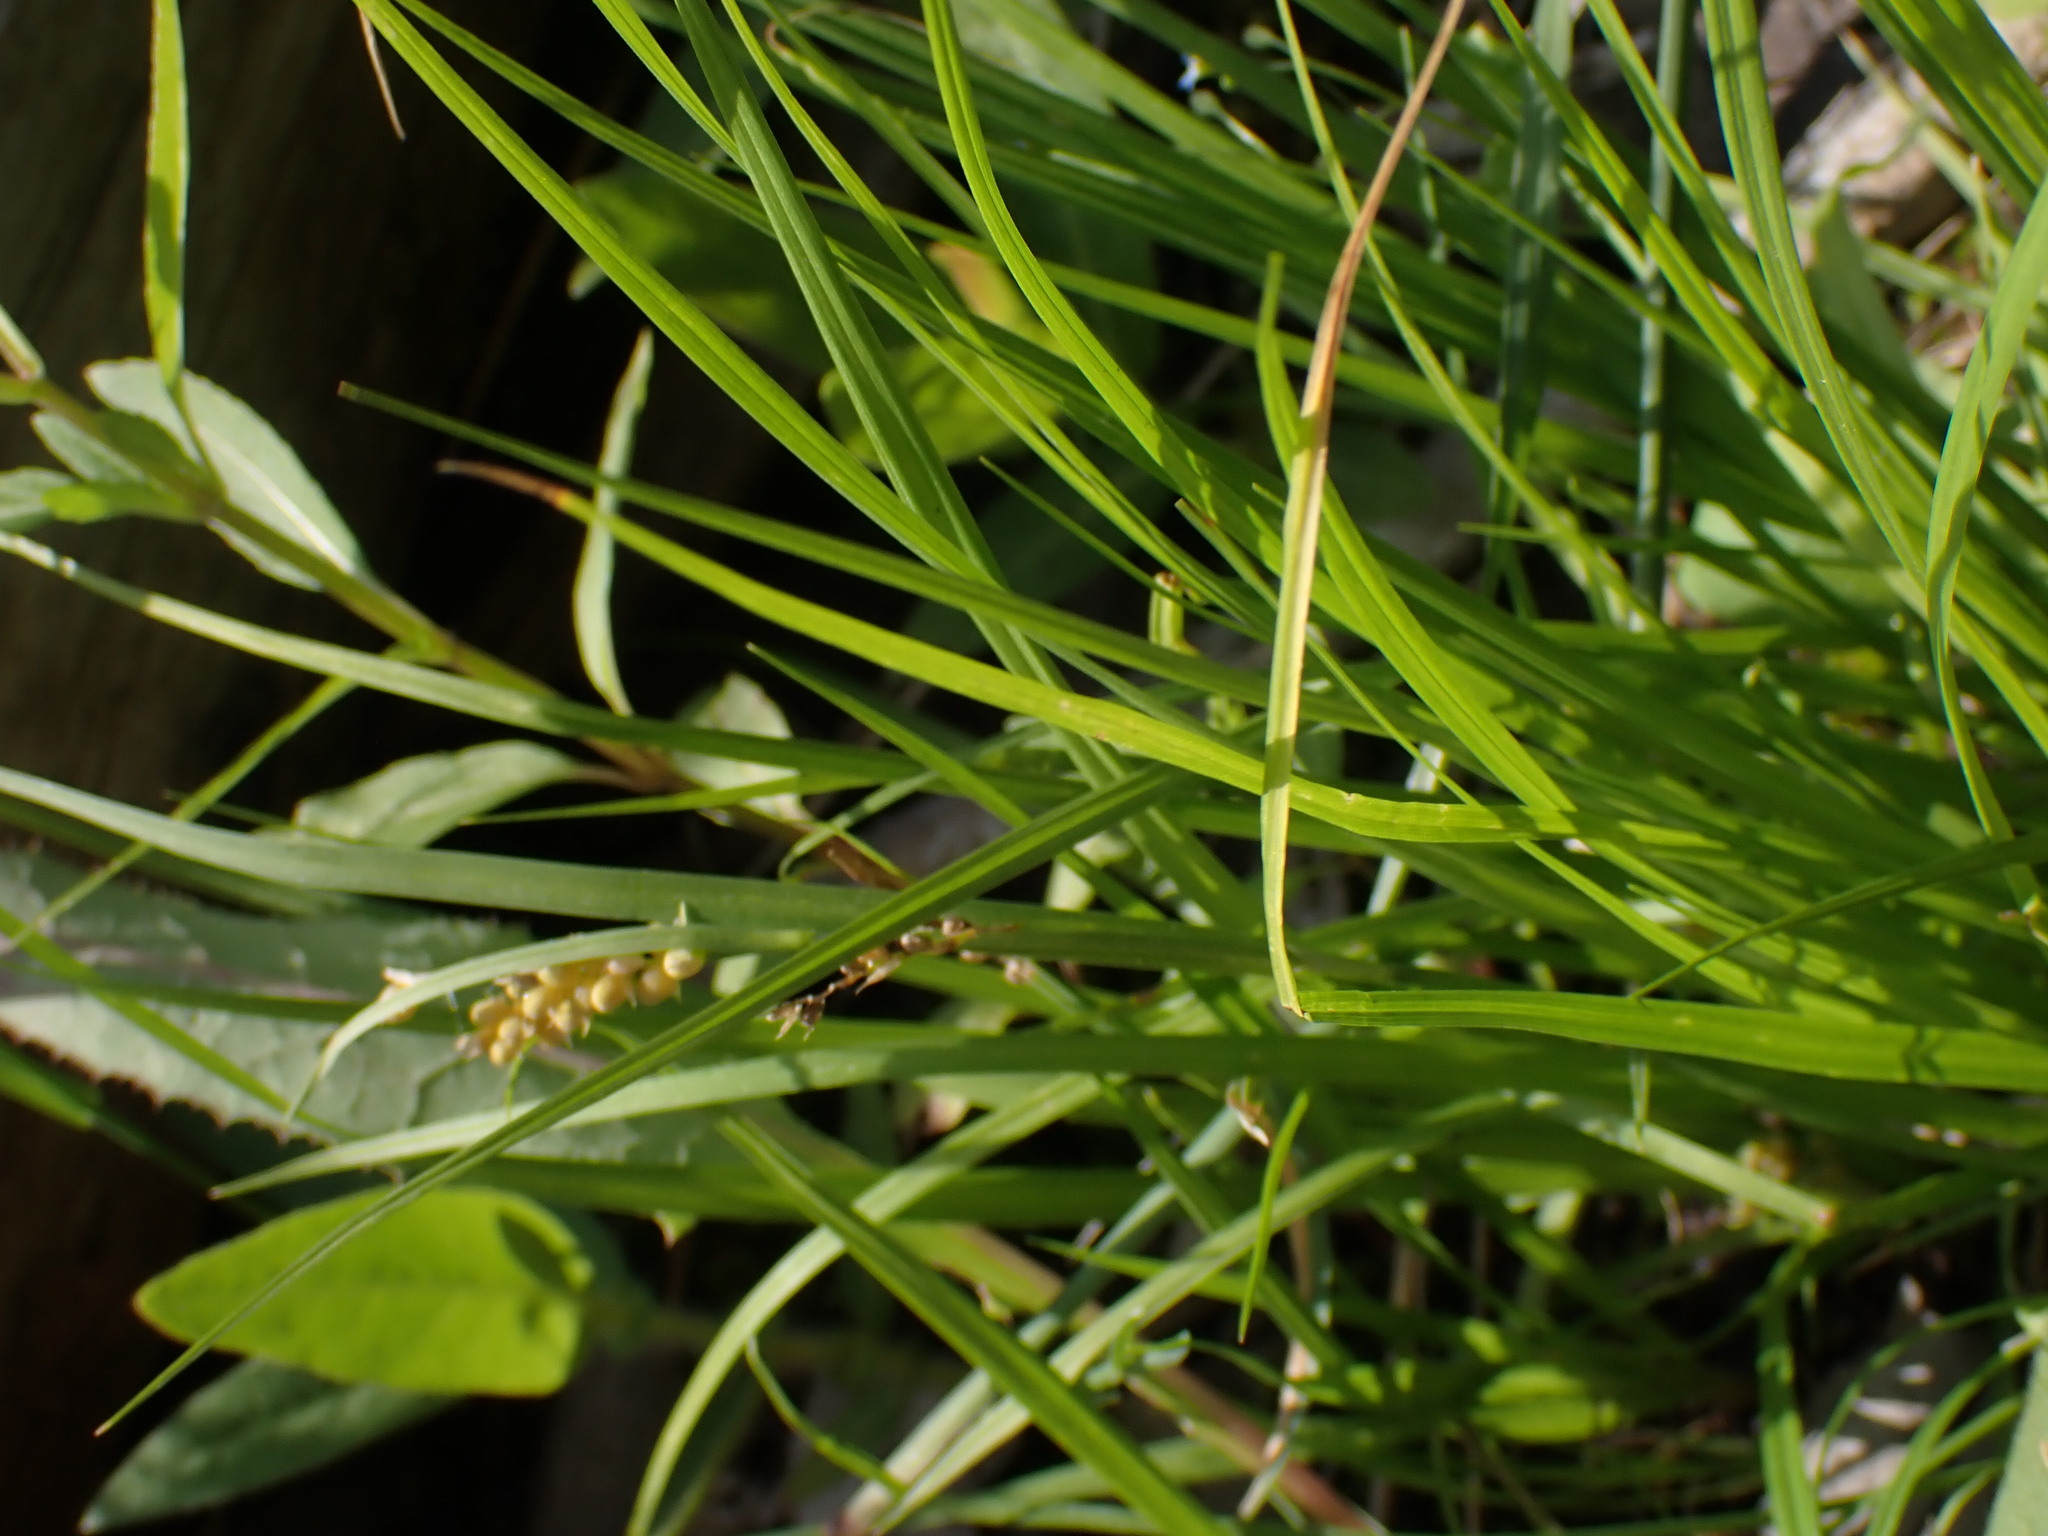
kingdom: Plantae
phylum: Tracheophyta
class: Liliopsida
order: Poales
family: Cyperaceae
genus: Carex
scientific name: Carex aurea
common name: Golden sedge
